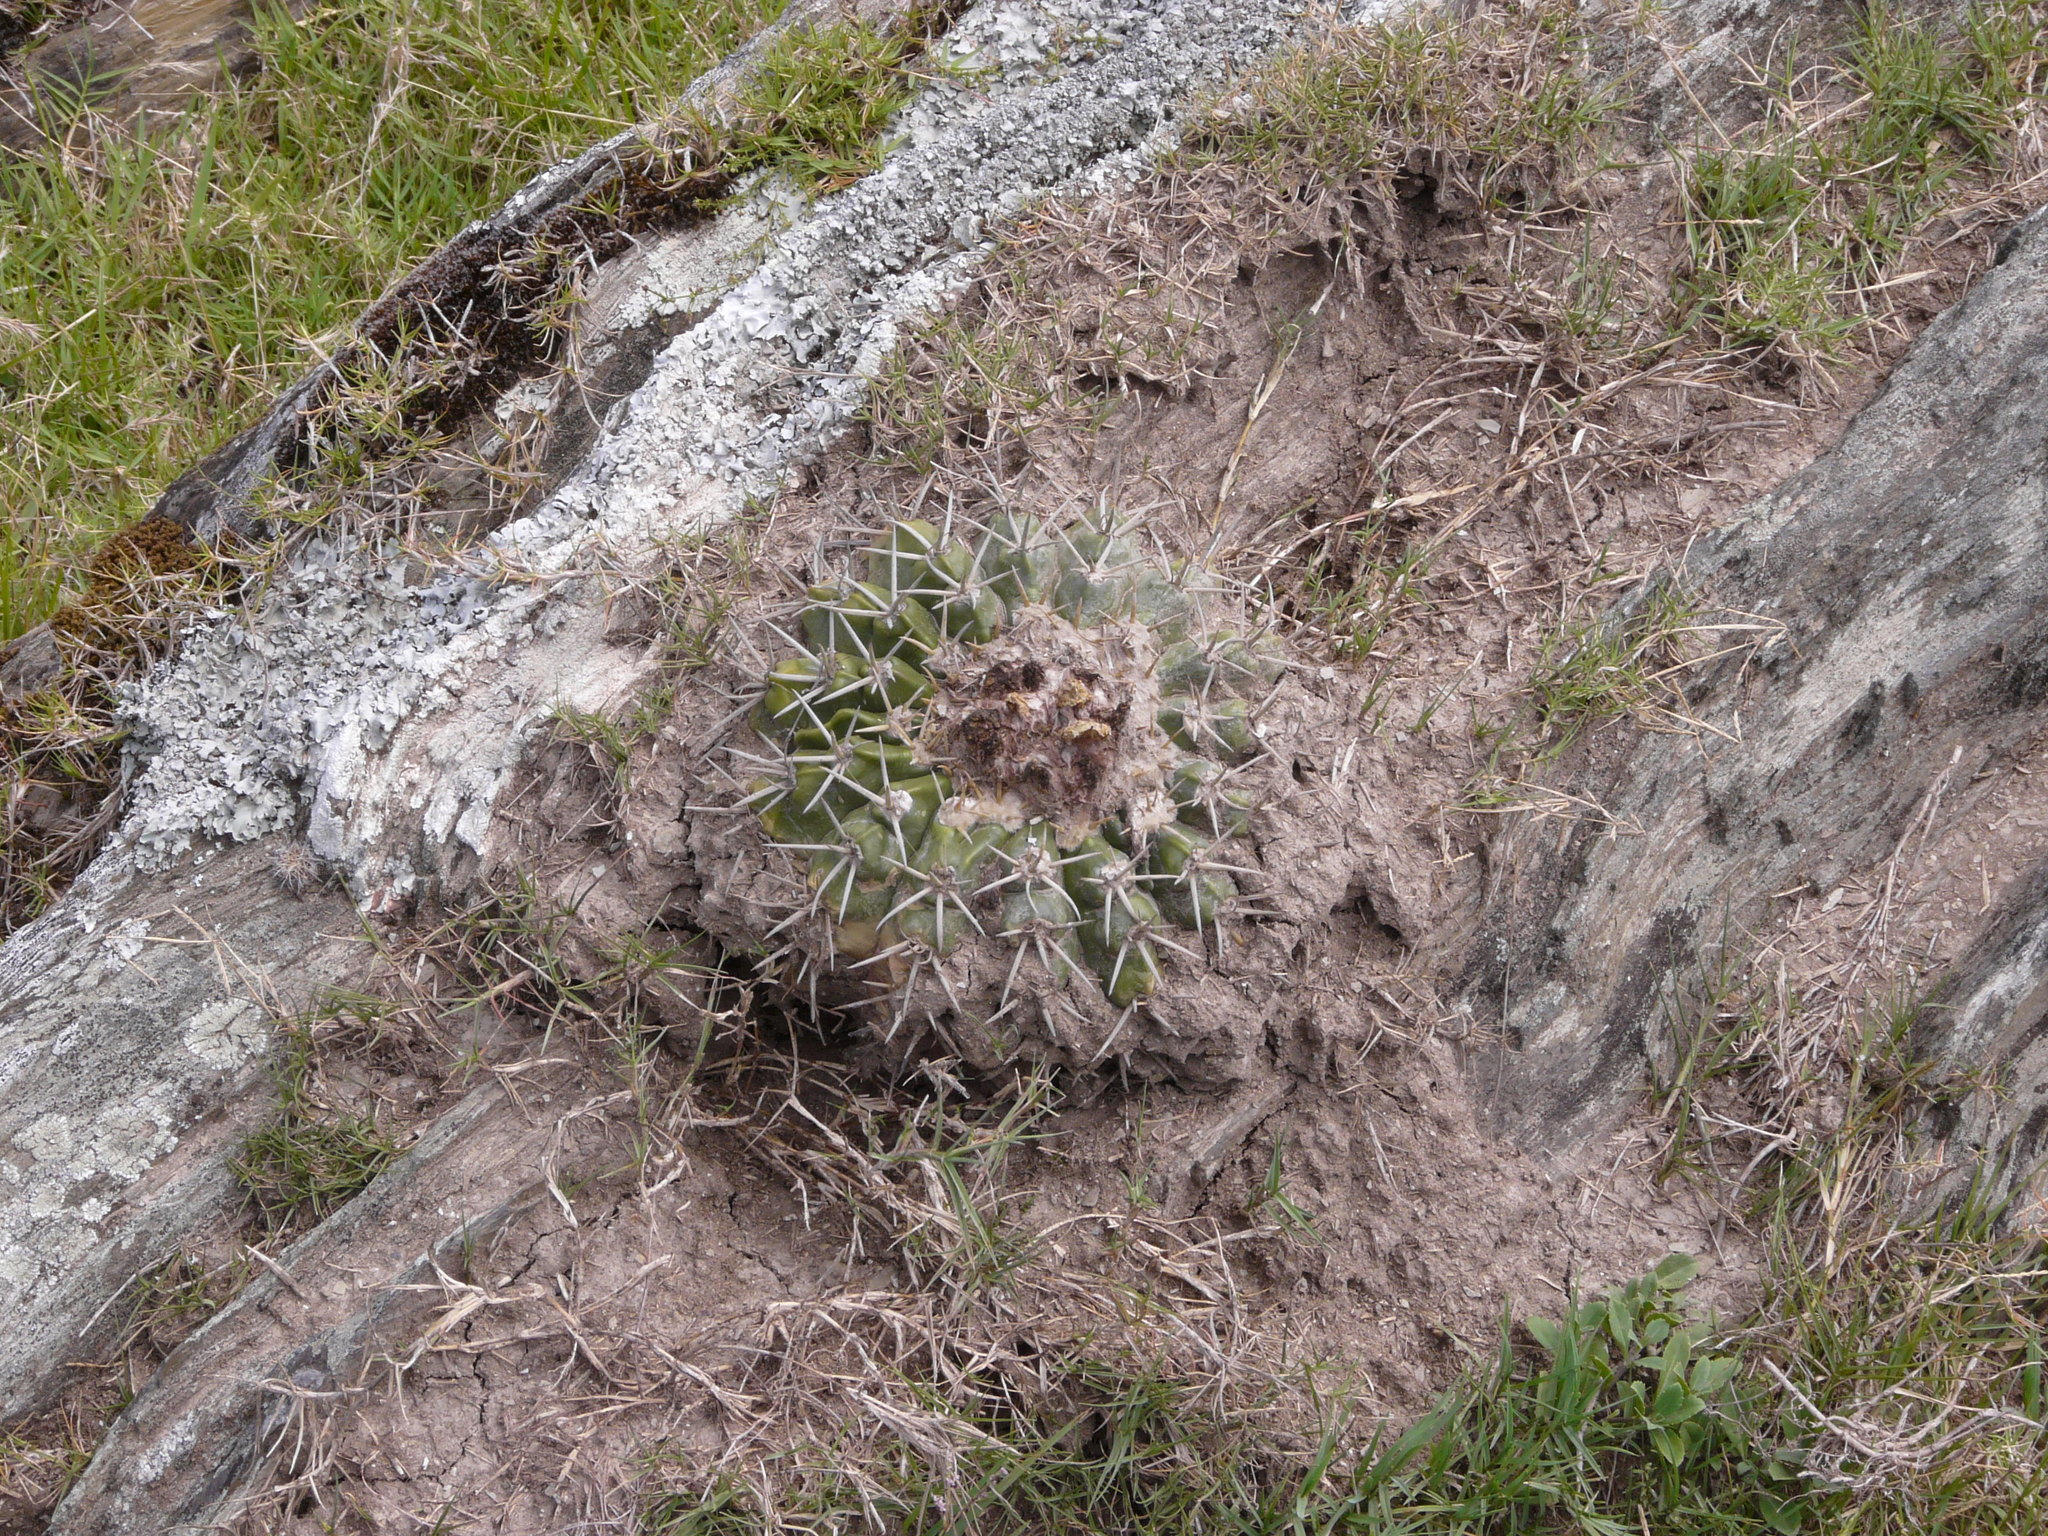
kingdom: Plantae
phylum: Tracheophyta
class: Magnoliopsida
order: Caryophyllales
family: Cactaceae
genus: Parodia
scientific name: Parodia erinacea
